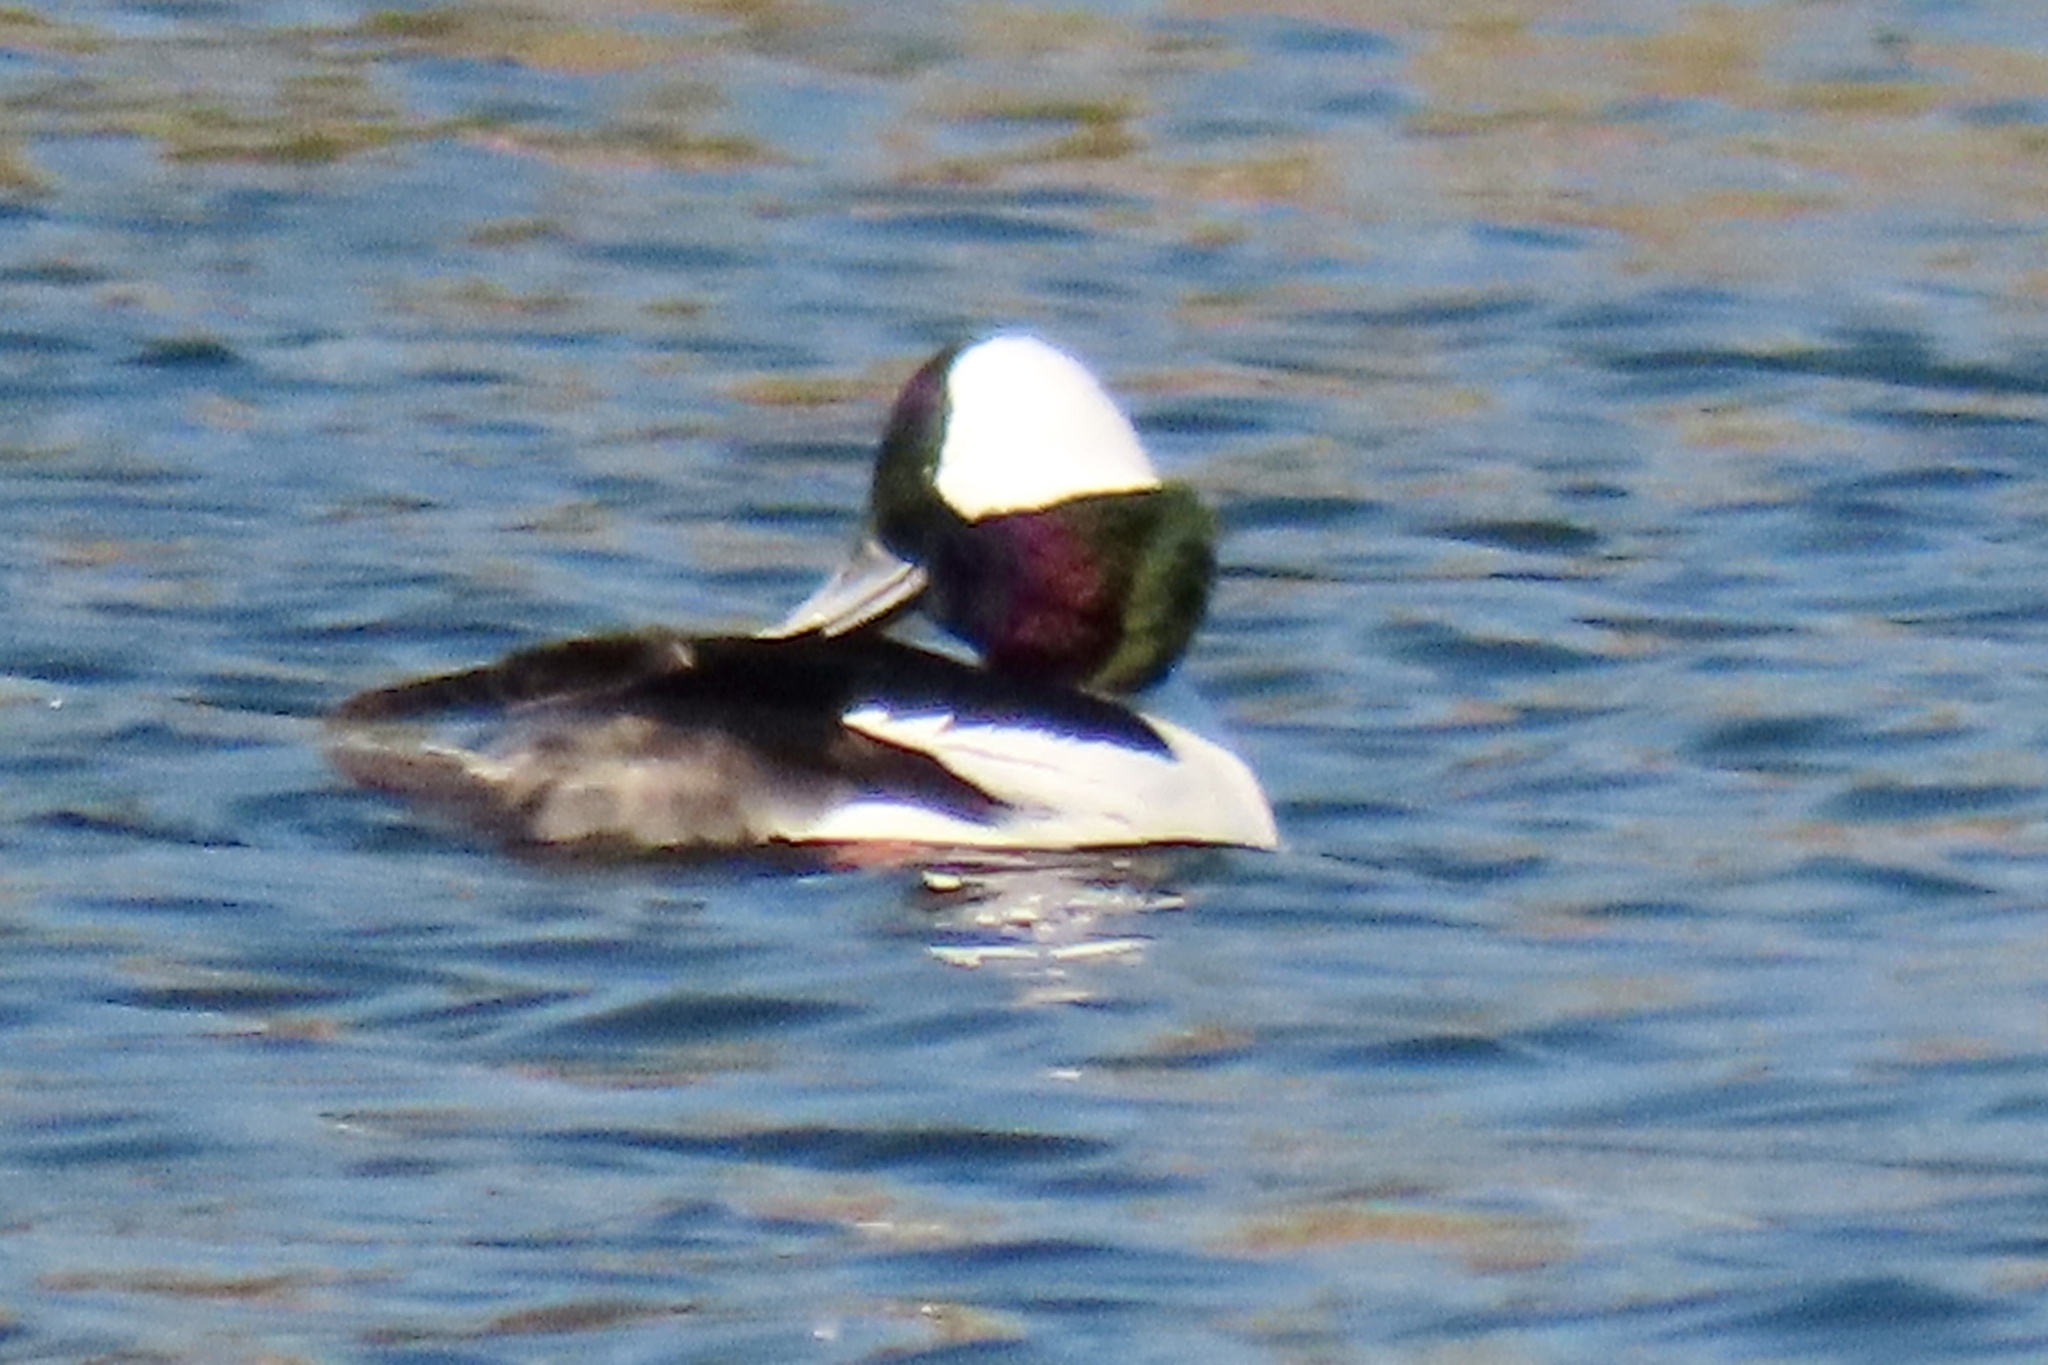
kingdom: Animalia
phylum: Chordata
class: Aves
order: Anseriformes
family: Anatidae
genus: Bucephala
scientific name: Bucephala albeola
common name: Bufflehead
